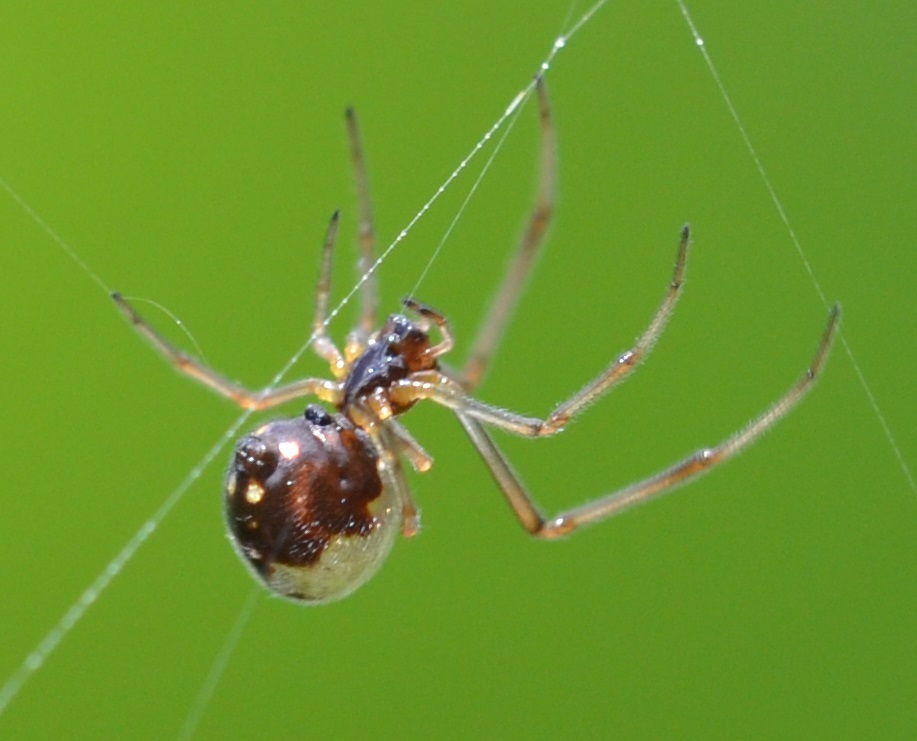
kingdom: Animalia
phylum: Arthropoda
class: Arachnida
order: Araneae
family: Theridiidae
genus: Argyrodes
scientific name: Argyrodes argentatus
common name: Dewdrop spider
